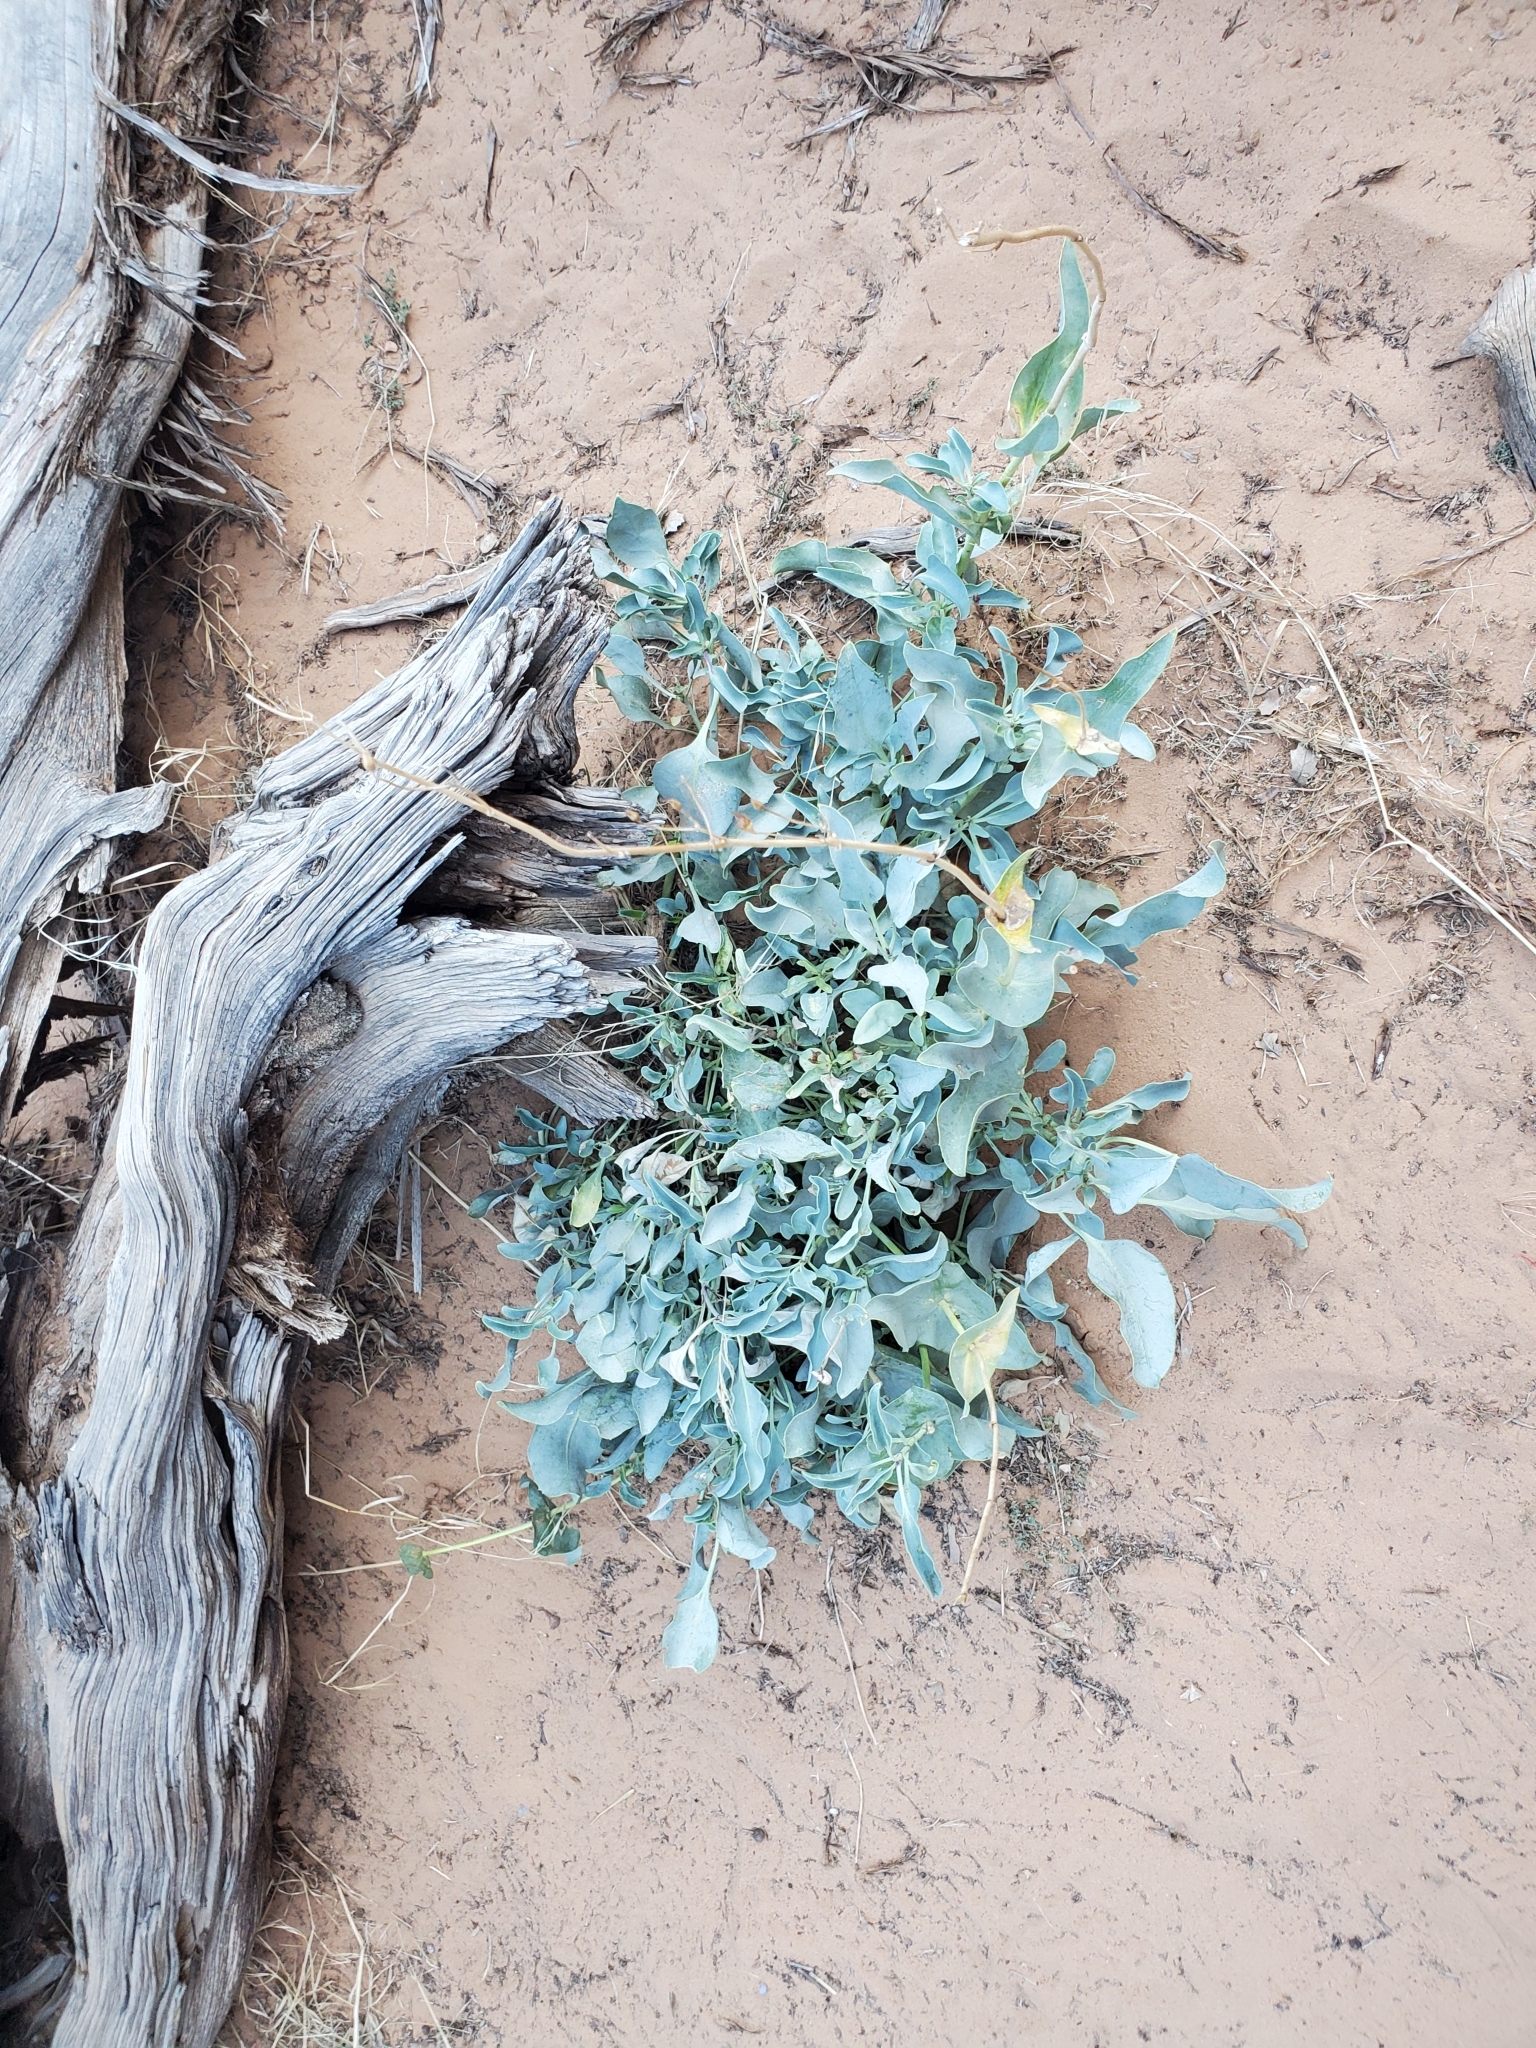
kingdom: Plantae
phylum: Tracheophyta
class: Magnoliopsida
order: Lamiales
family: Plantaginaceae
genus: Penstemon
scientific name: Penstemon palmeri
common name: Palmer penstemon
